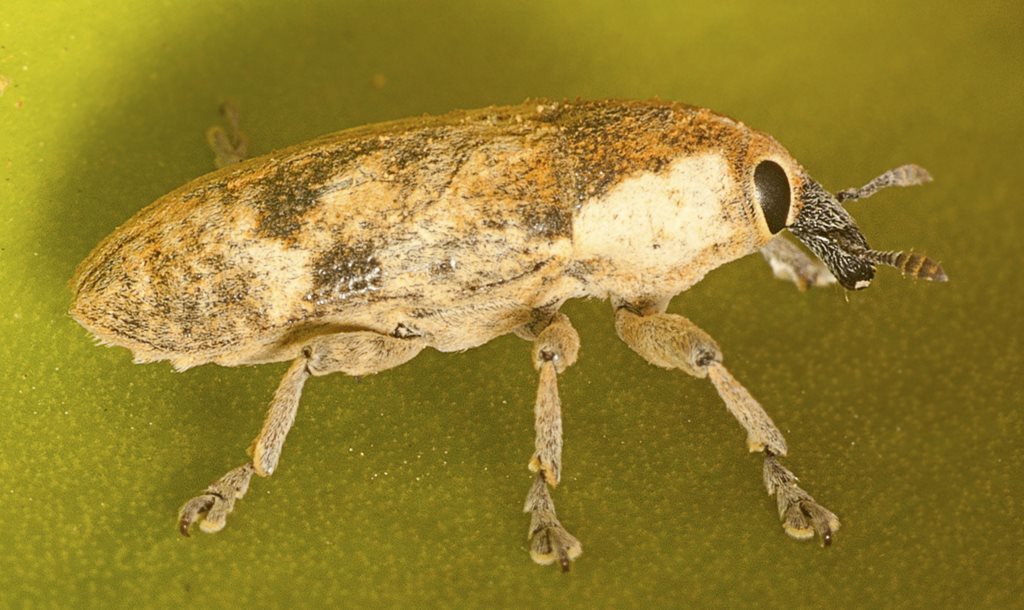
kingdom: Animalia
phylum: Arthropoda
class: Insecta
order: Coleoptera
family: Curculionidae
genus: Hypolixus
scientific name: Hypolixus
